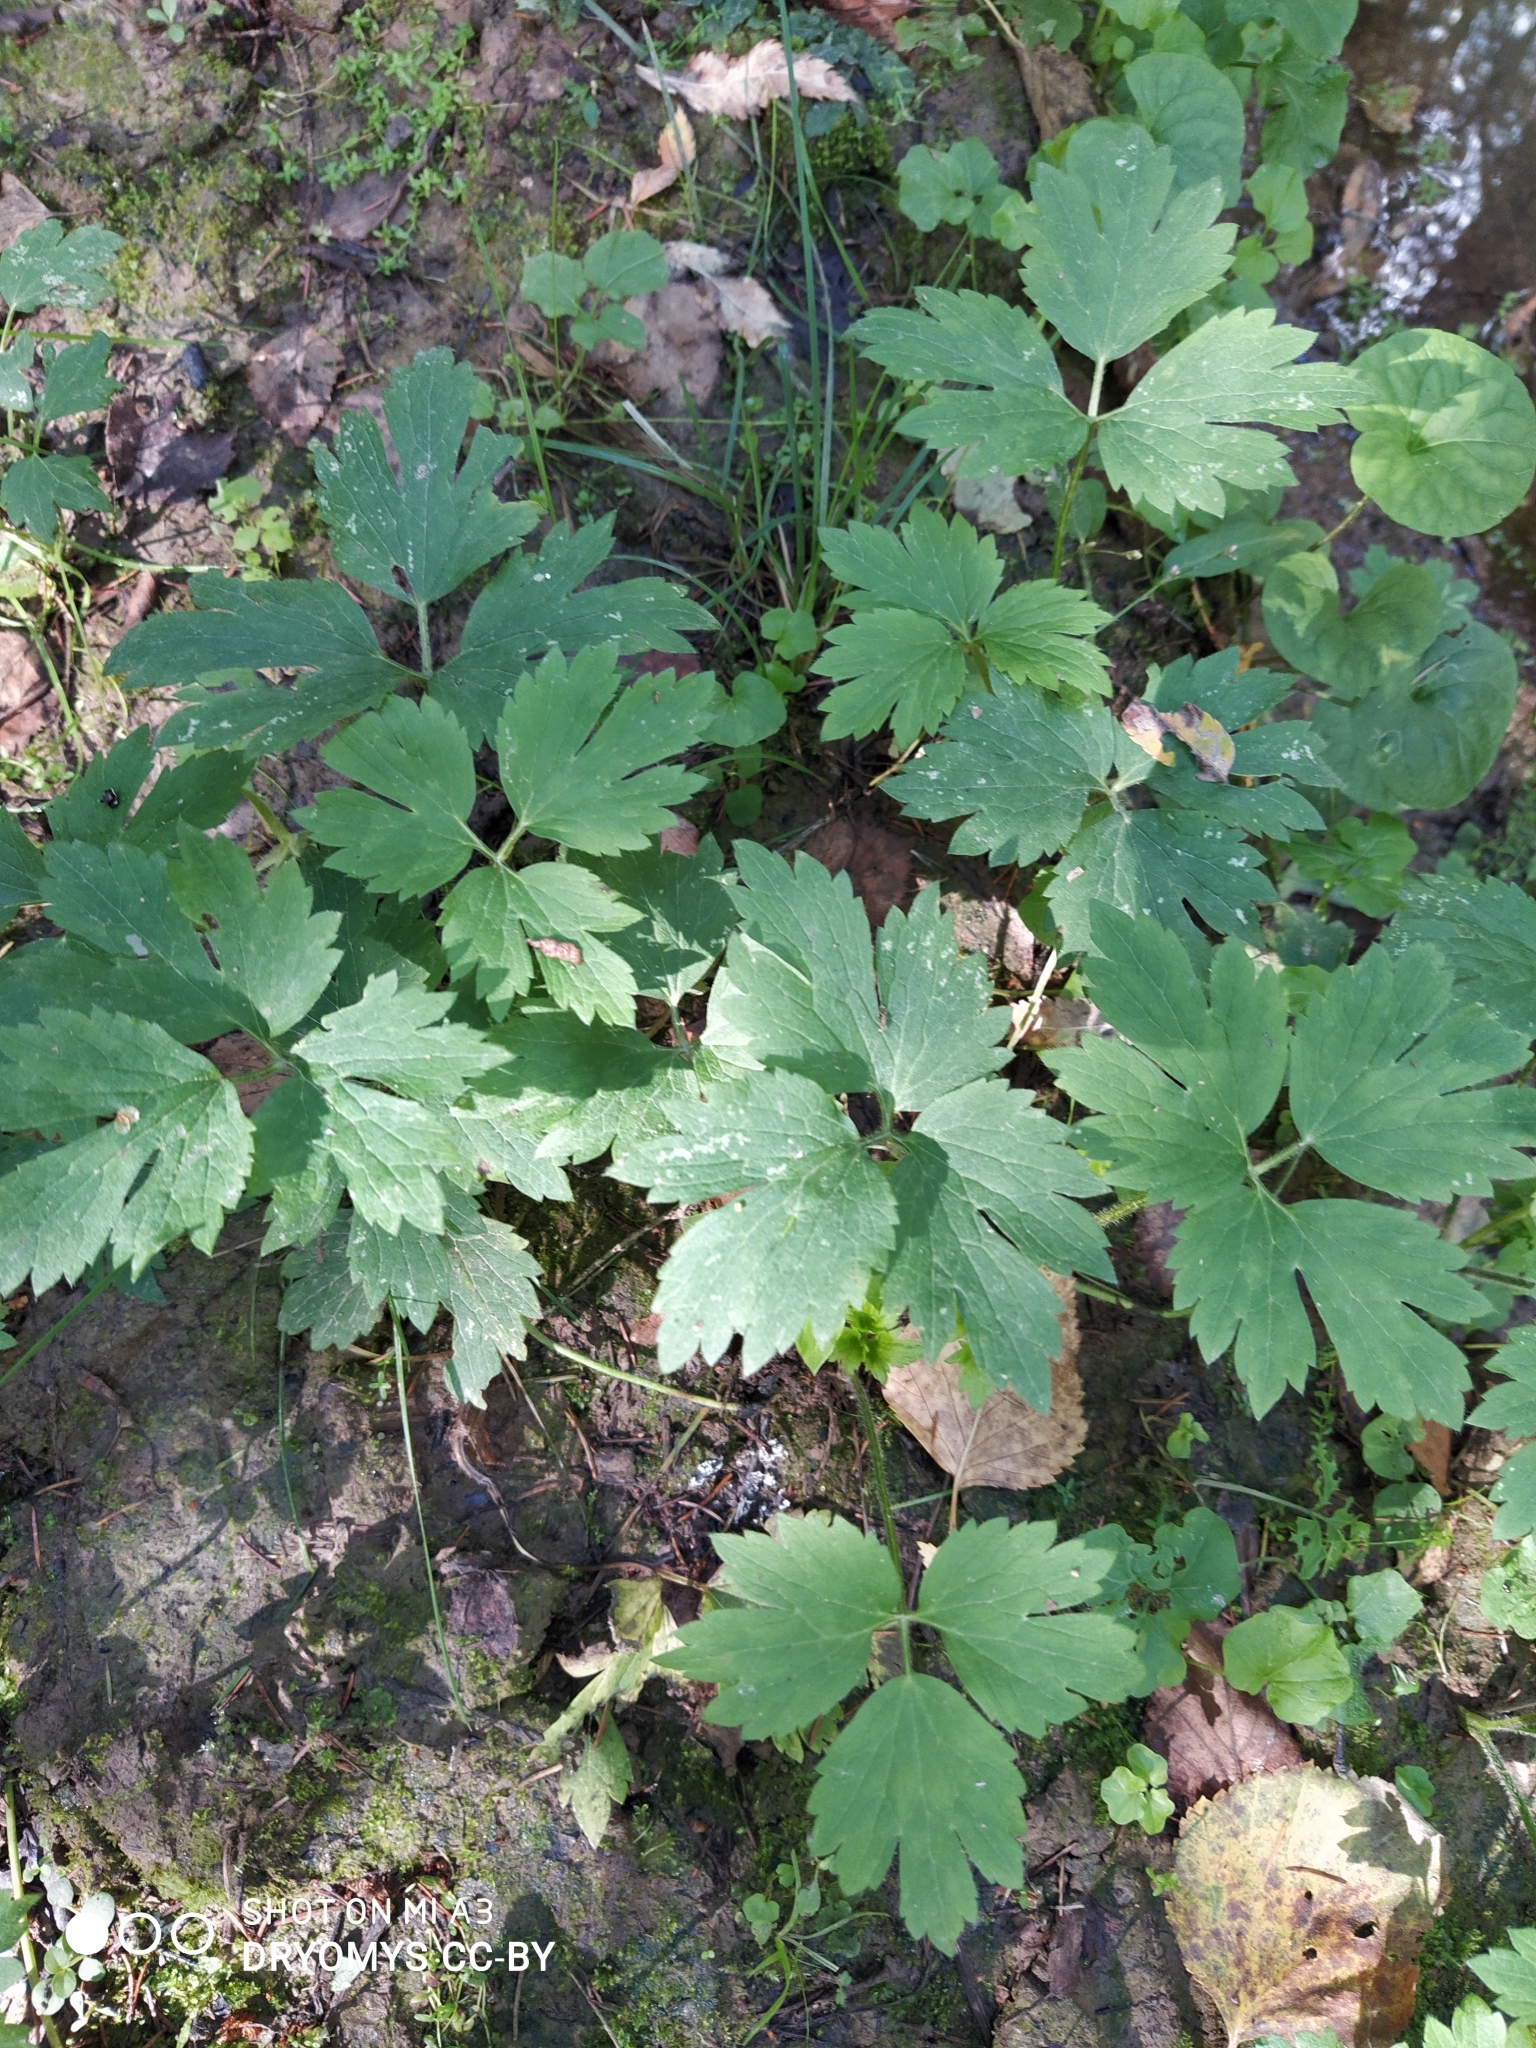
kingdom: Plantae
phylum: Tracheophyta
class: Magnoliopsida
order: Ranunculales
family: Ranunculaceae
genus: Ranunculus
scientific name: Ranunculus repens
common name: Creeping buttercup
